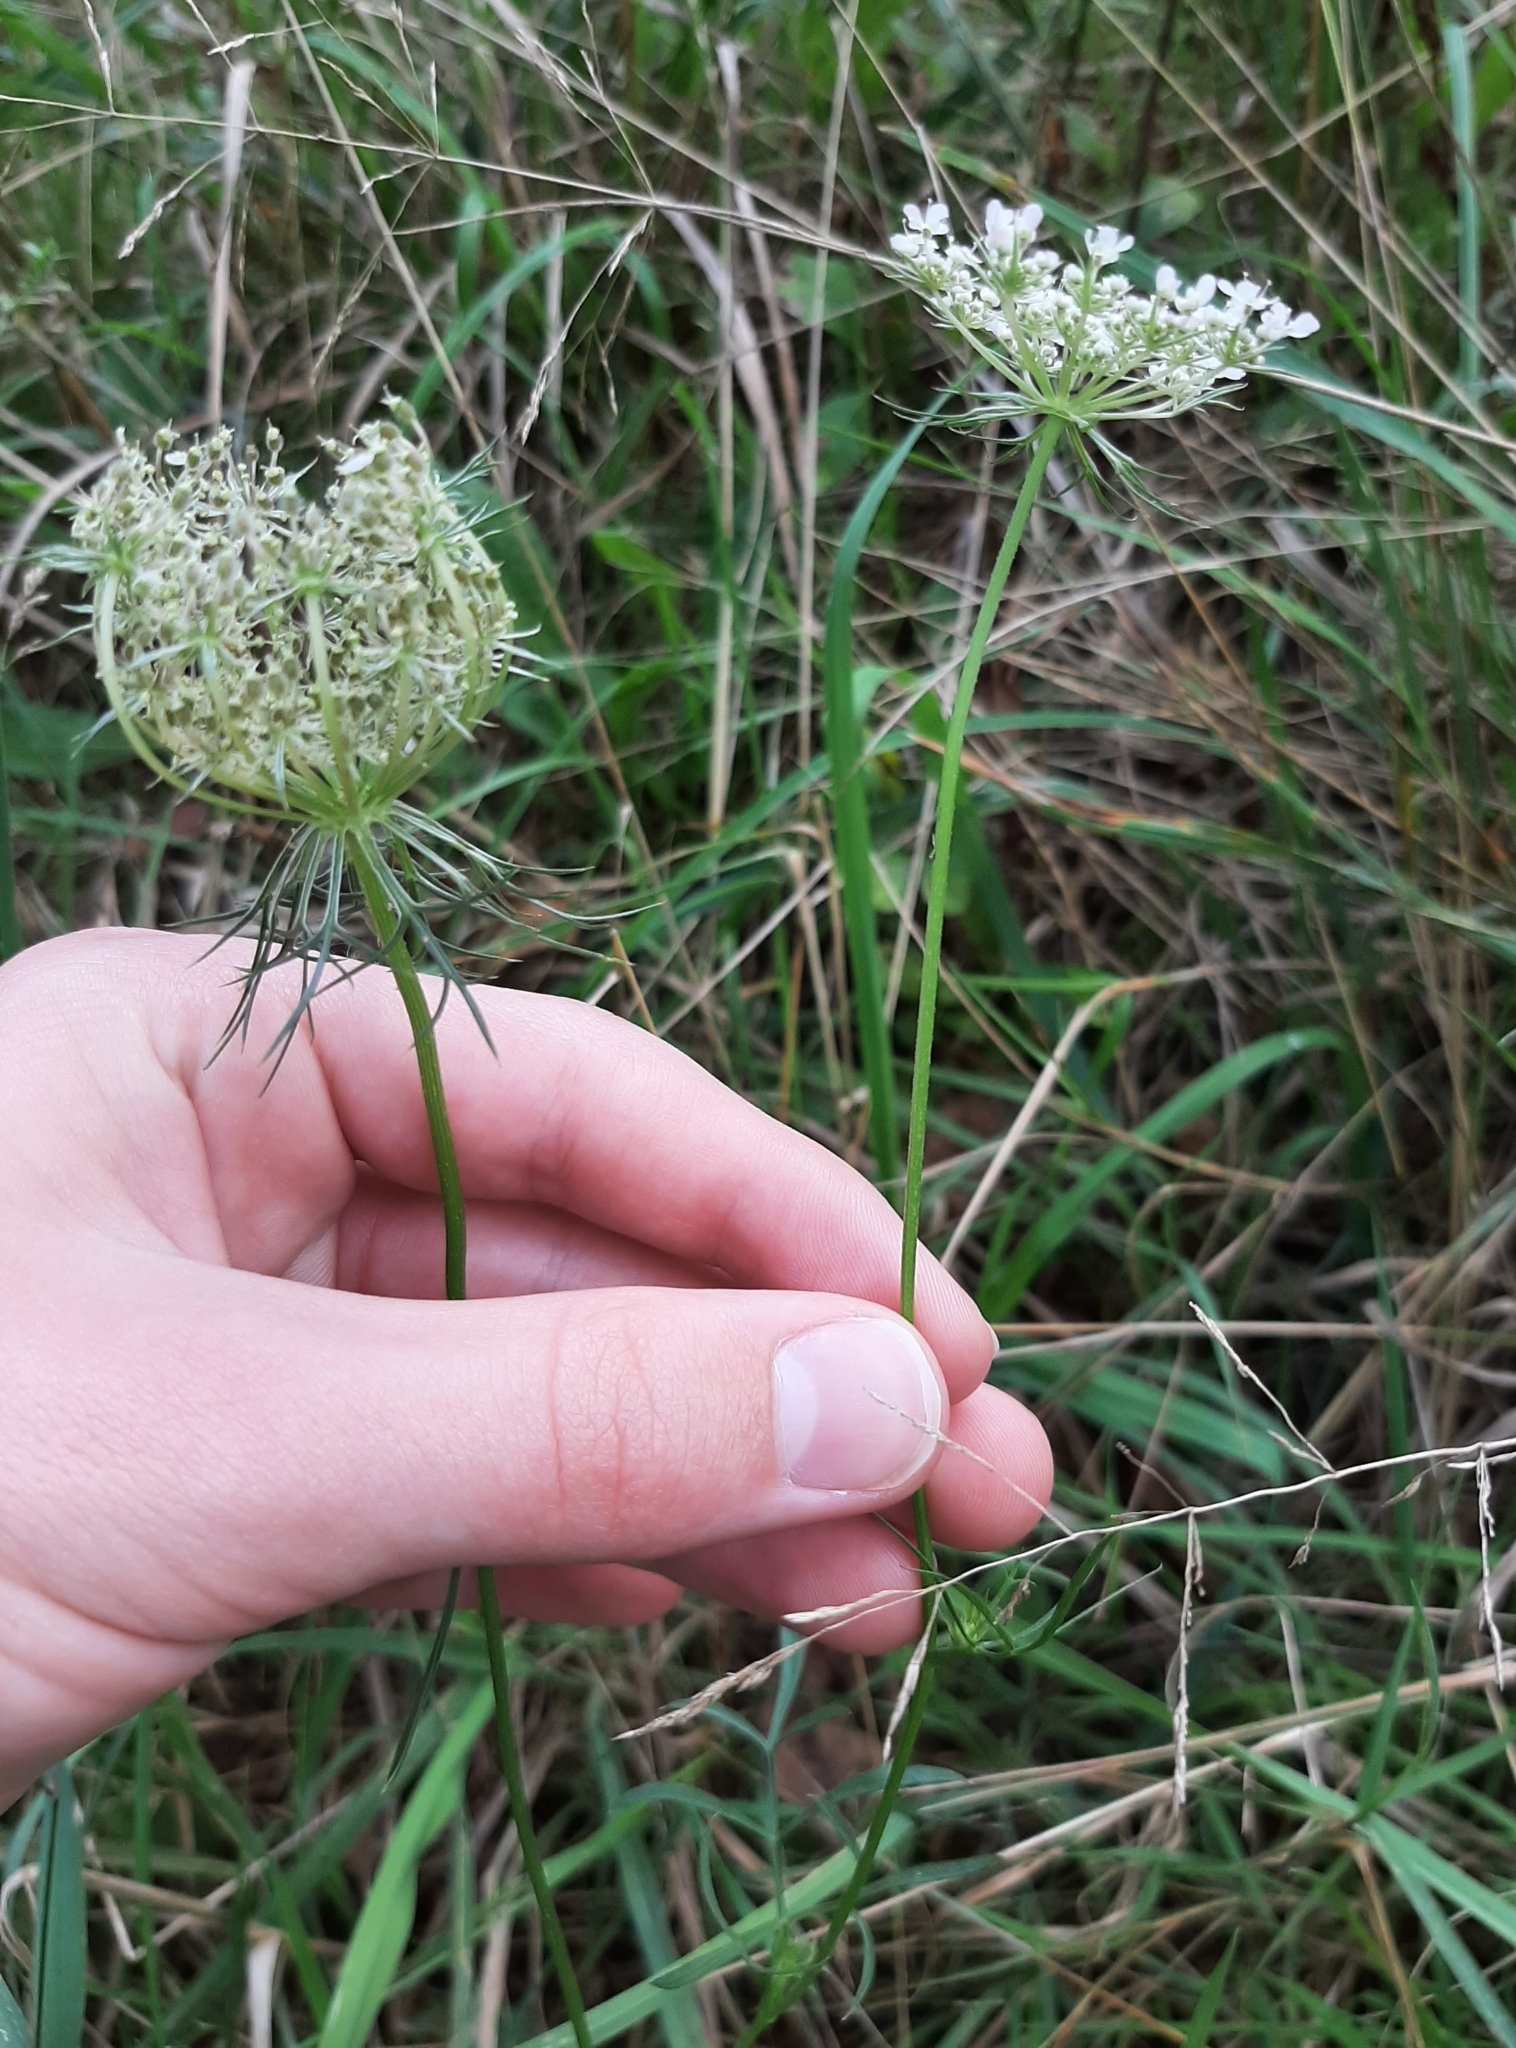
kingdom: Plantae
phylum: Tracheophyta
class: Magnoliopsida
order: Apiales
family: Apiaceae
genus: Daucus
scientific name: Daucus carota
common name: Wild carrot
